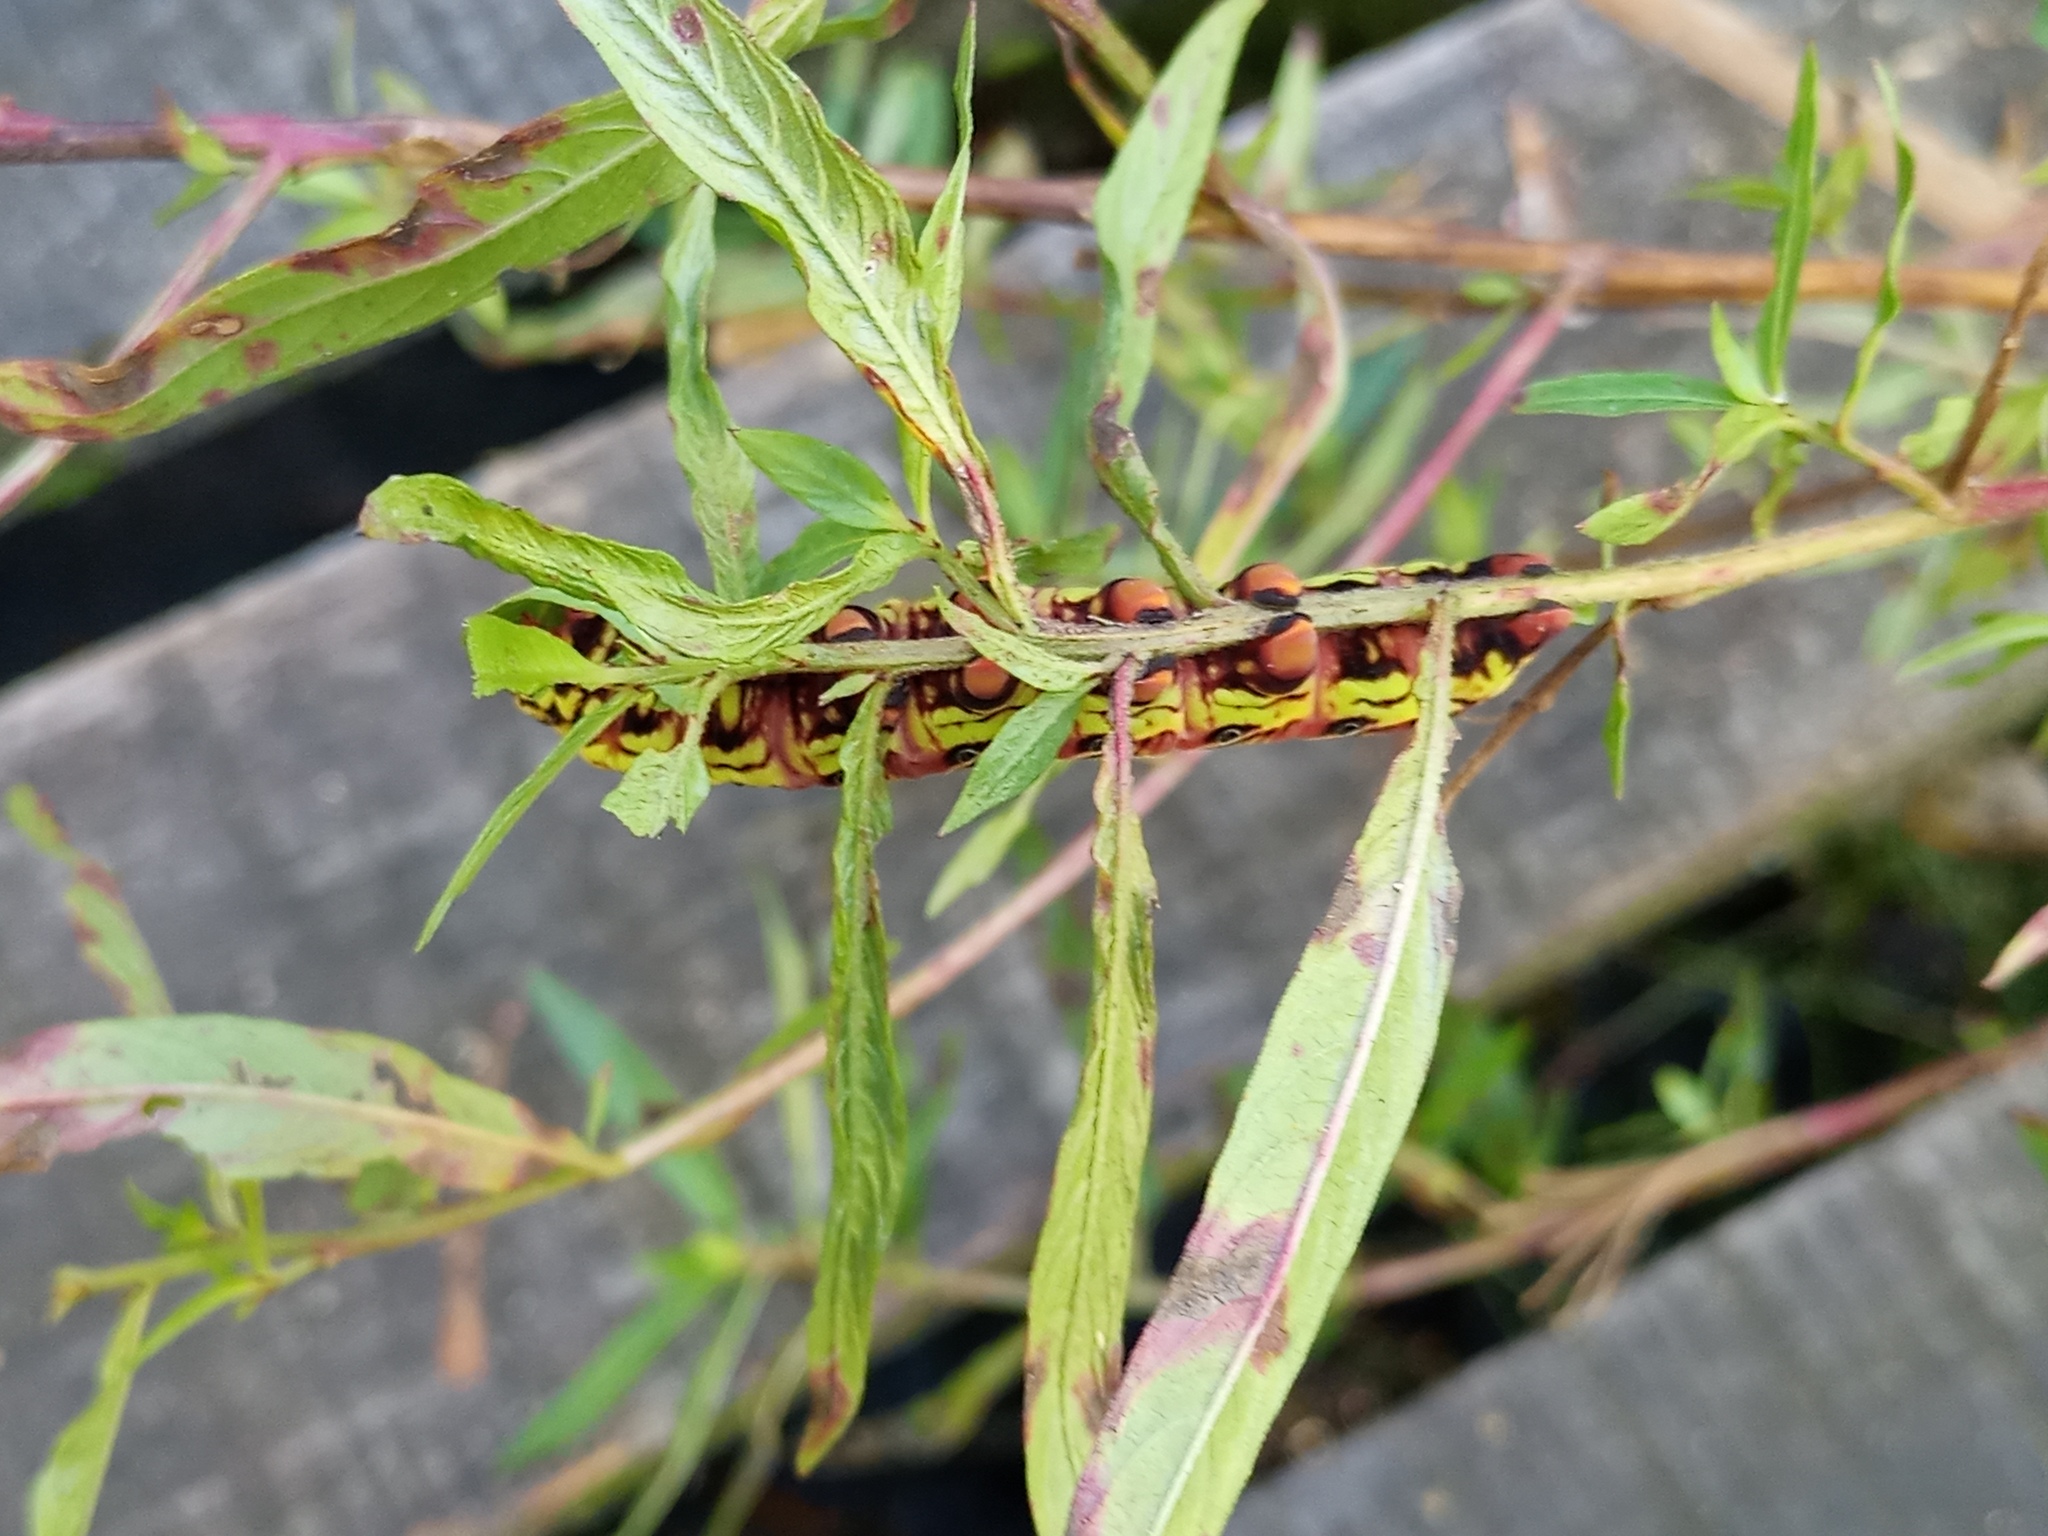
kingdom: Animalia
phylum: Arthropoda
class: Insecta
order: Lepidoptera
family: Sphingidae
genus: Eumorpha
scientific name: Eumorpha fasciatus
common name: Banded sphinx
